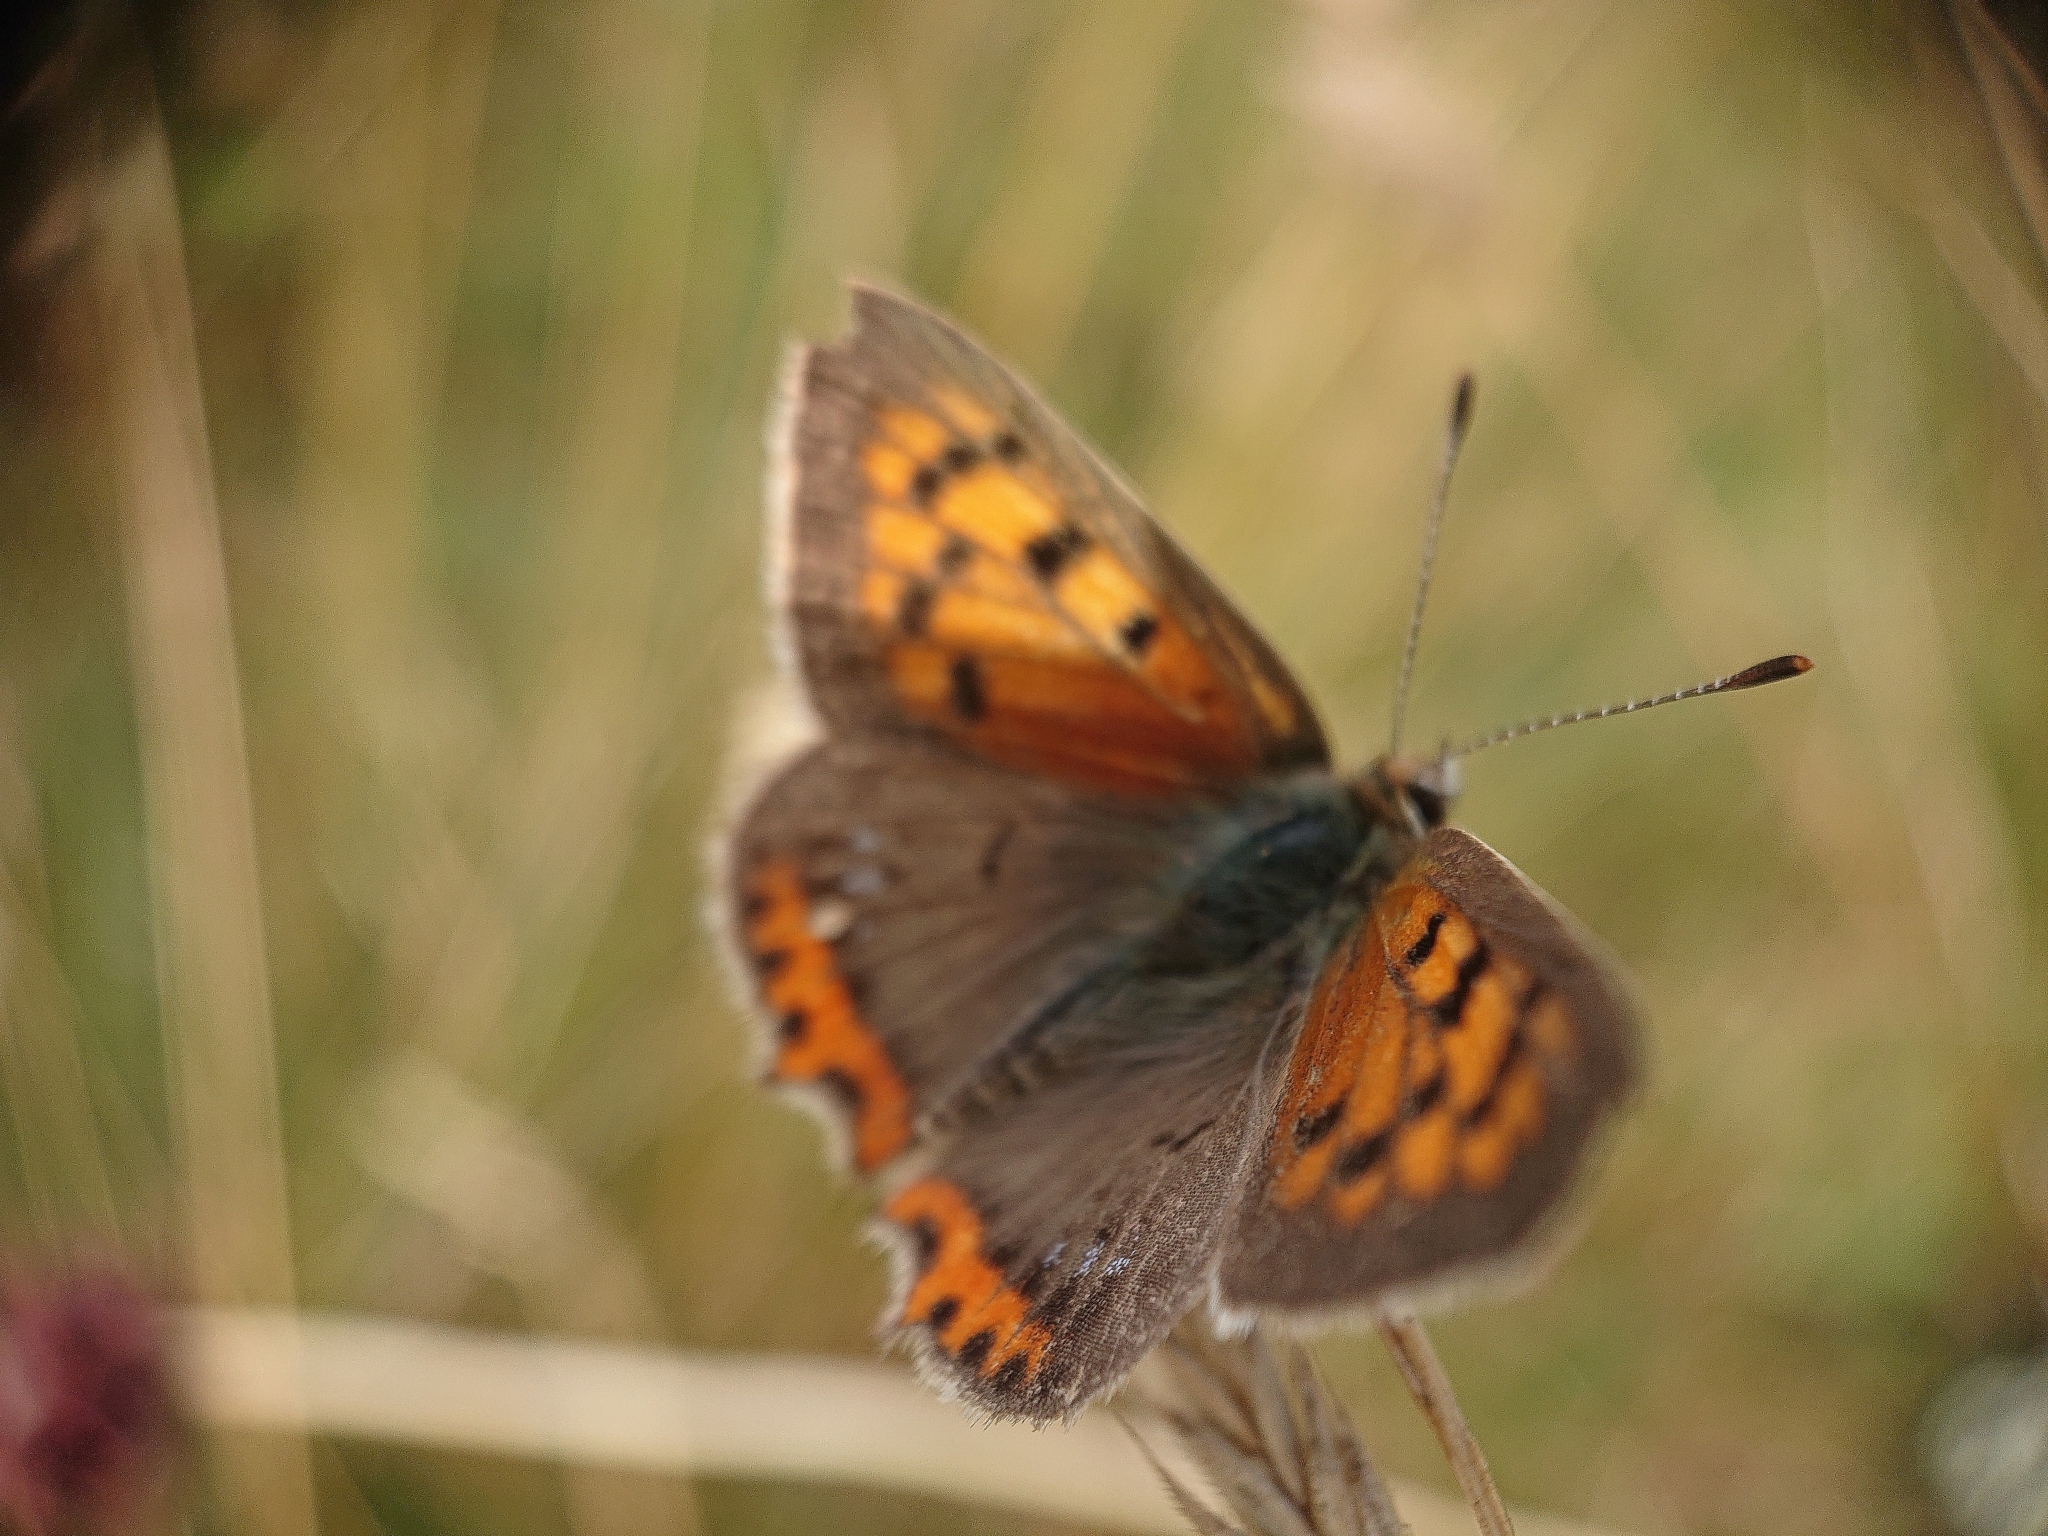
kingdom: Animalia
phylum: Arthropoda
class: Insecta
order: Lepidoptera
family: Lycaenidae
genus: Lycaena
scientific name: Lycaena phlaeas
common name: Small copper
